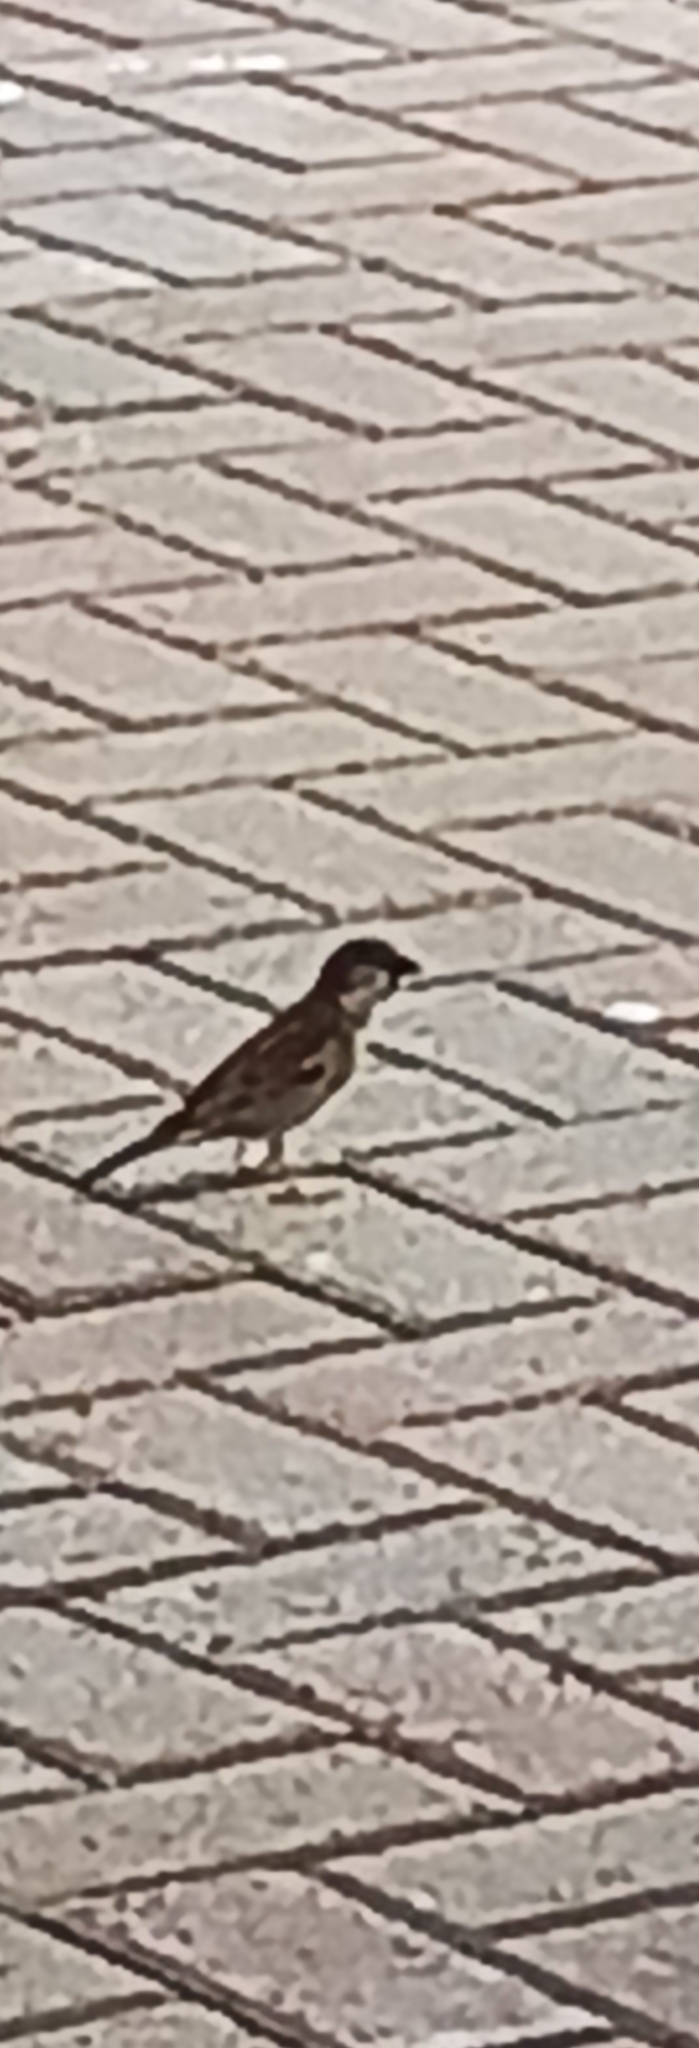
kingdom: Animalia
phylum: Chordata
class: Aves
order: Passeriformes
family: Passeridae
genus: Passer
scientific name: Passer domesticus
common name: House sparrow
